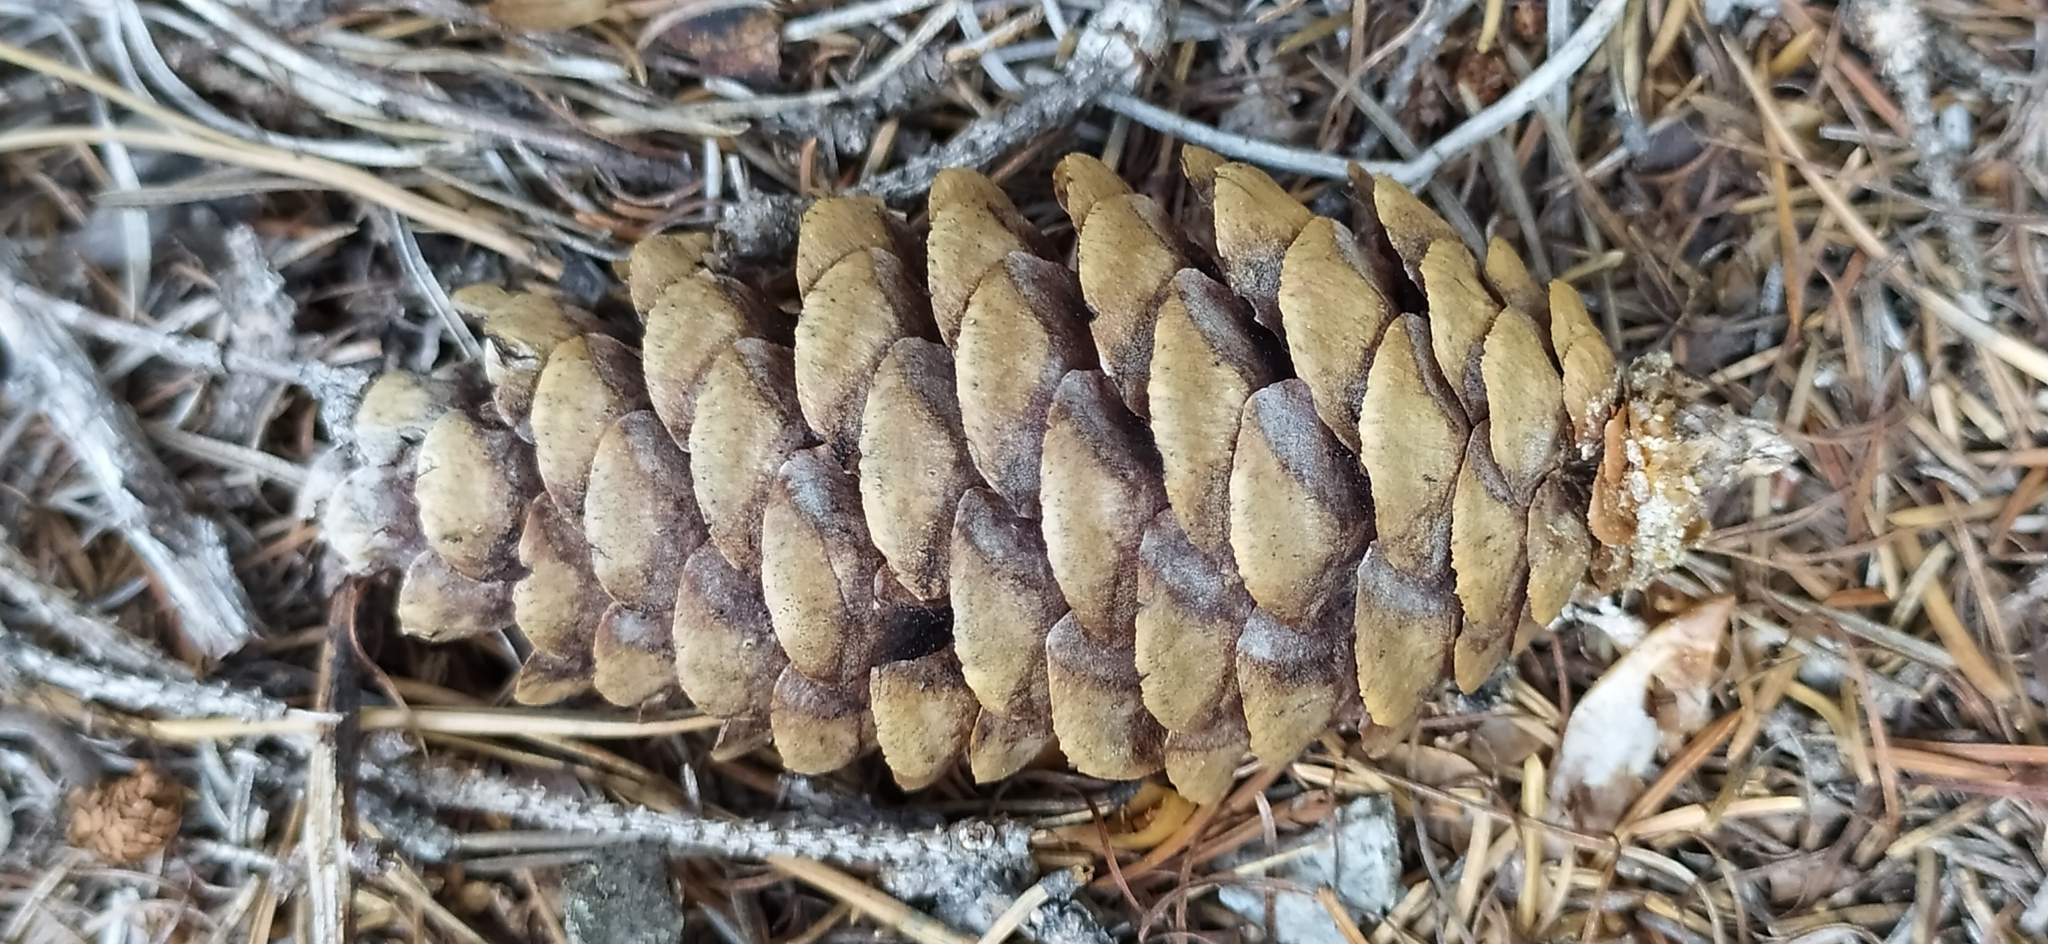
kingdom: Plantae
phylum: Tracheophyta
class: Pinopsida
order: Pinales
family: Pinaceae
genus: Picea
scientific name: Picea obovata
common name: Siberian spruce
